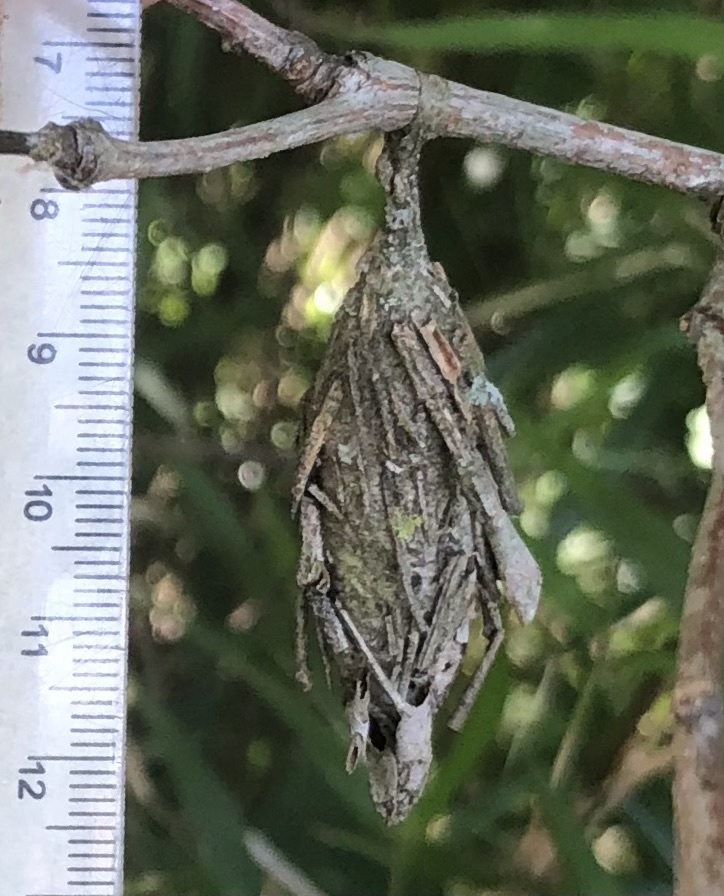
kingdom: Animalia
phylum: Arthropoda
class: Insecta
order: Lepidoptera
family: Psychidae
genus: Thyridopteryx
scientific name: Thyridopteryx ephemeraeformis
